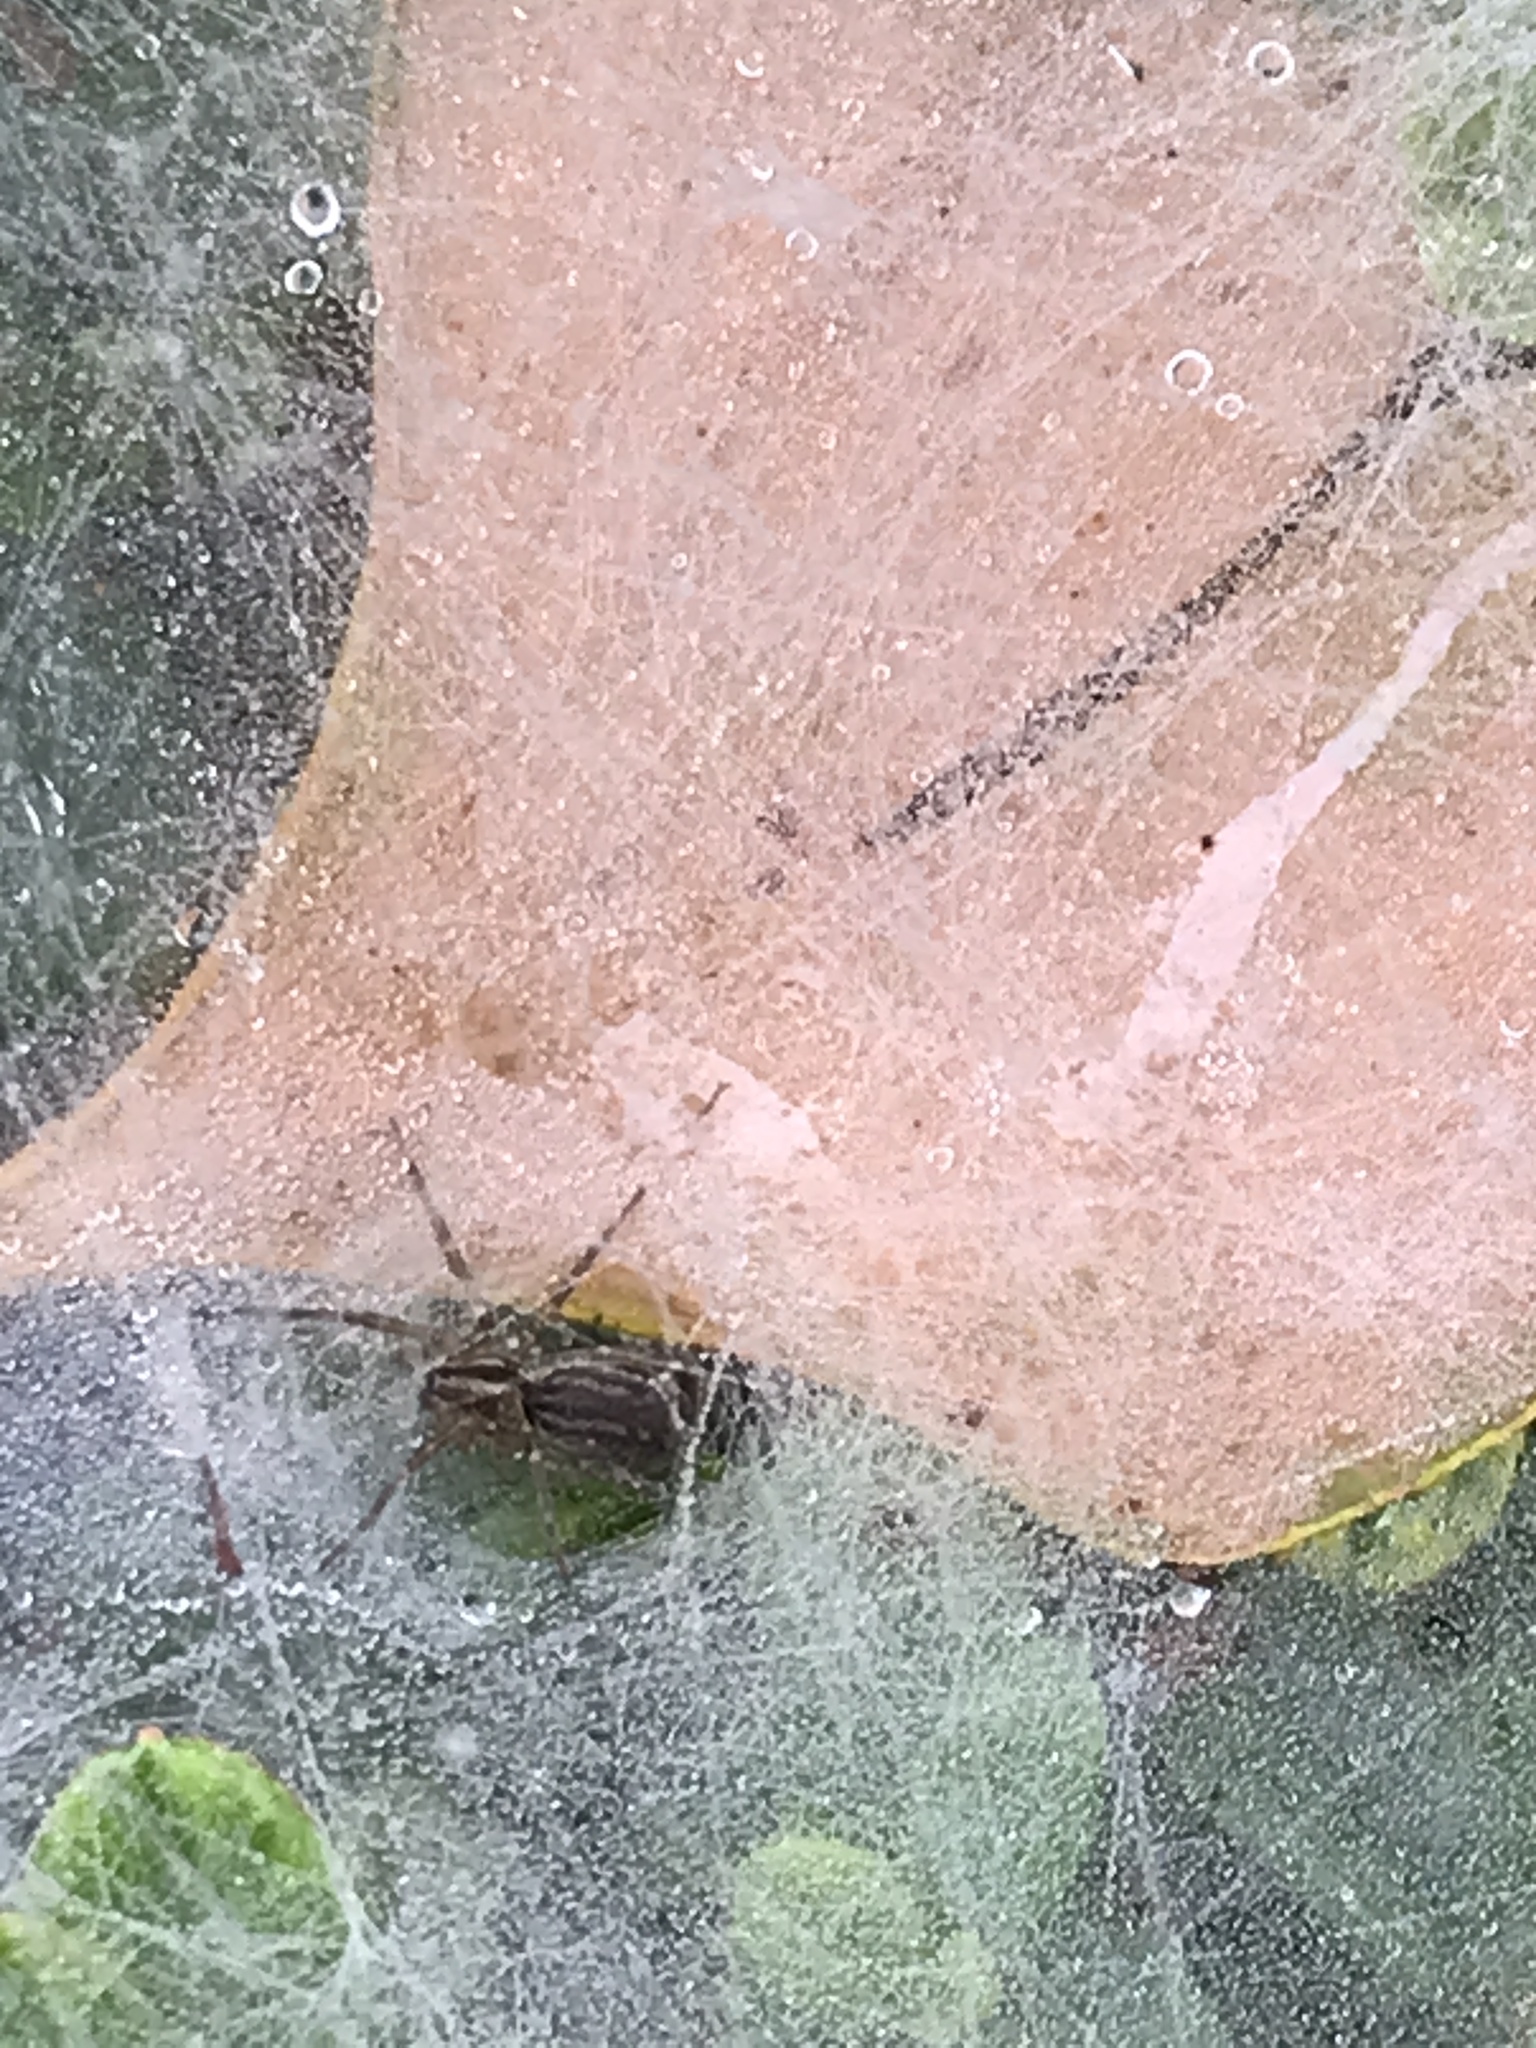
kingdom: Animalia
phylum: Arthropoda
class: Arachnida
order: Araneae
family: Agelenidae
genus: Agelenopsis
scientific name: Agelenopsis
